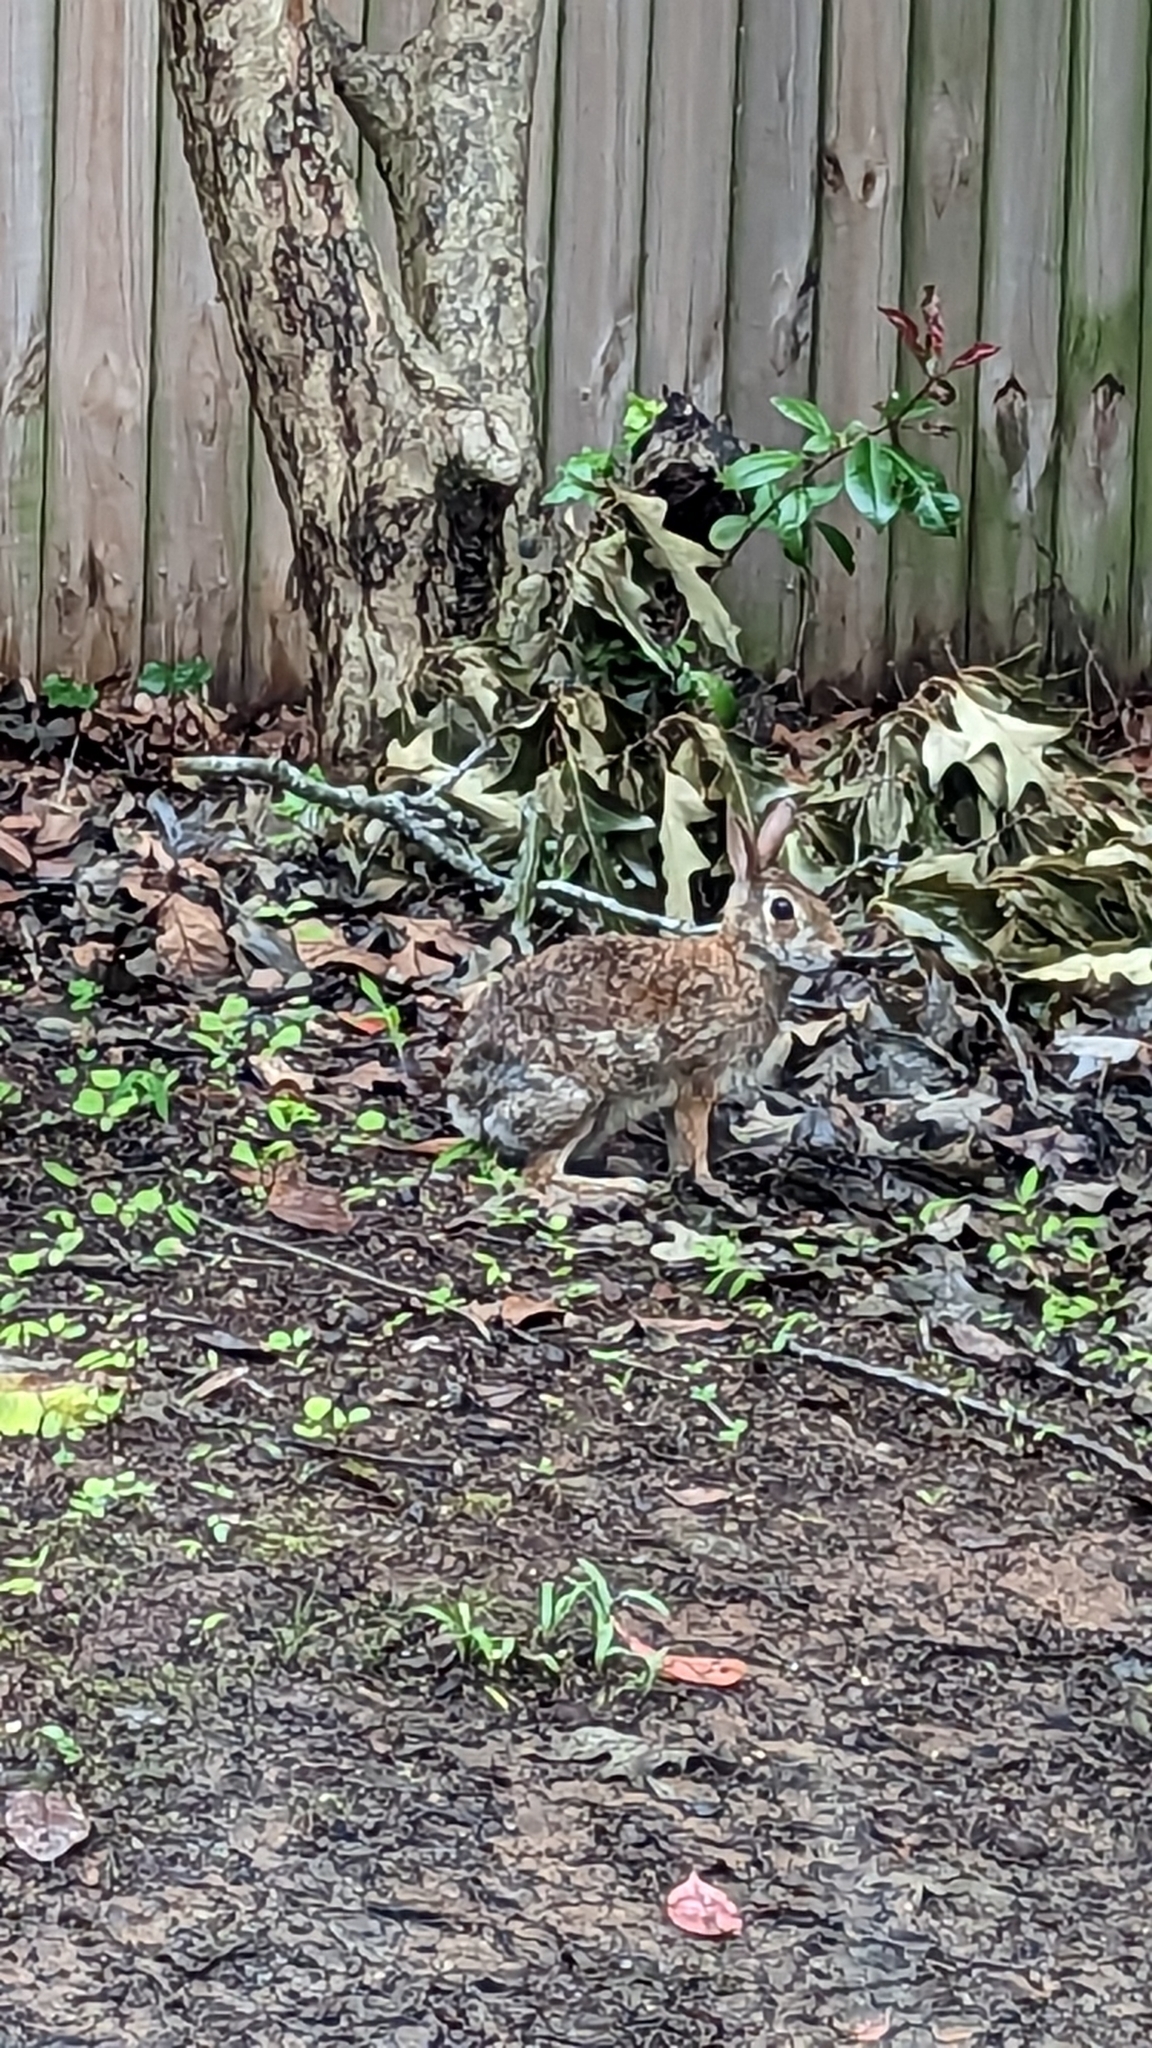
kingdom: Animalia
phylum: Chordata
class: Mammalia
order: Lagomorpha
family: Leporidae
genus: Sylvilagus
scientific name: Sylvilagus floridanus
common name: Eastern cottontail
